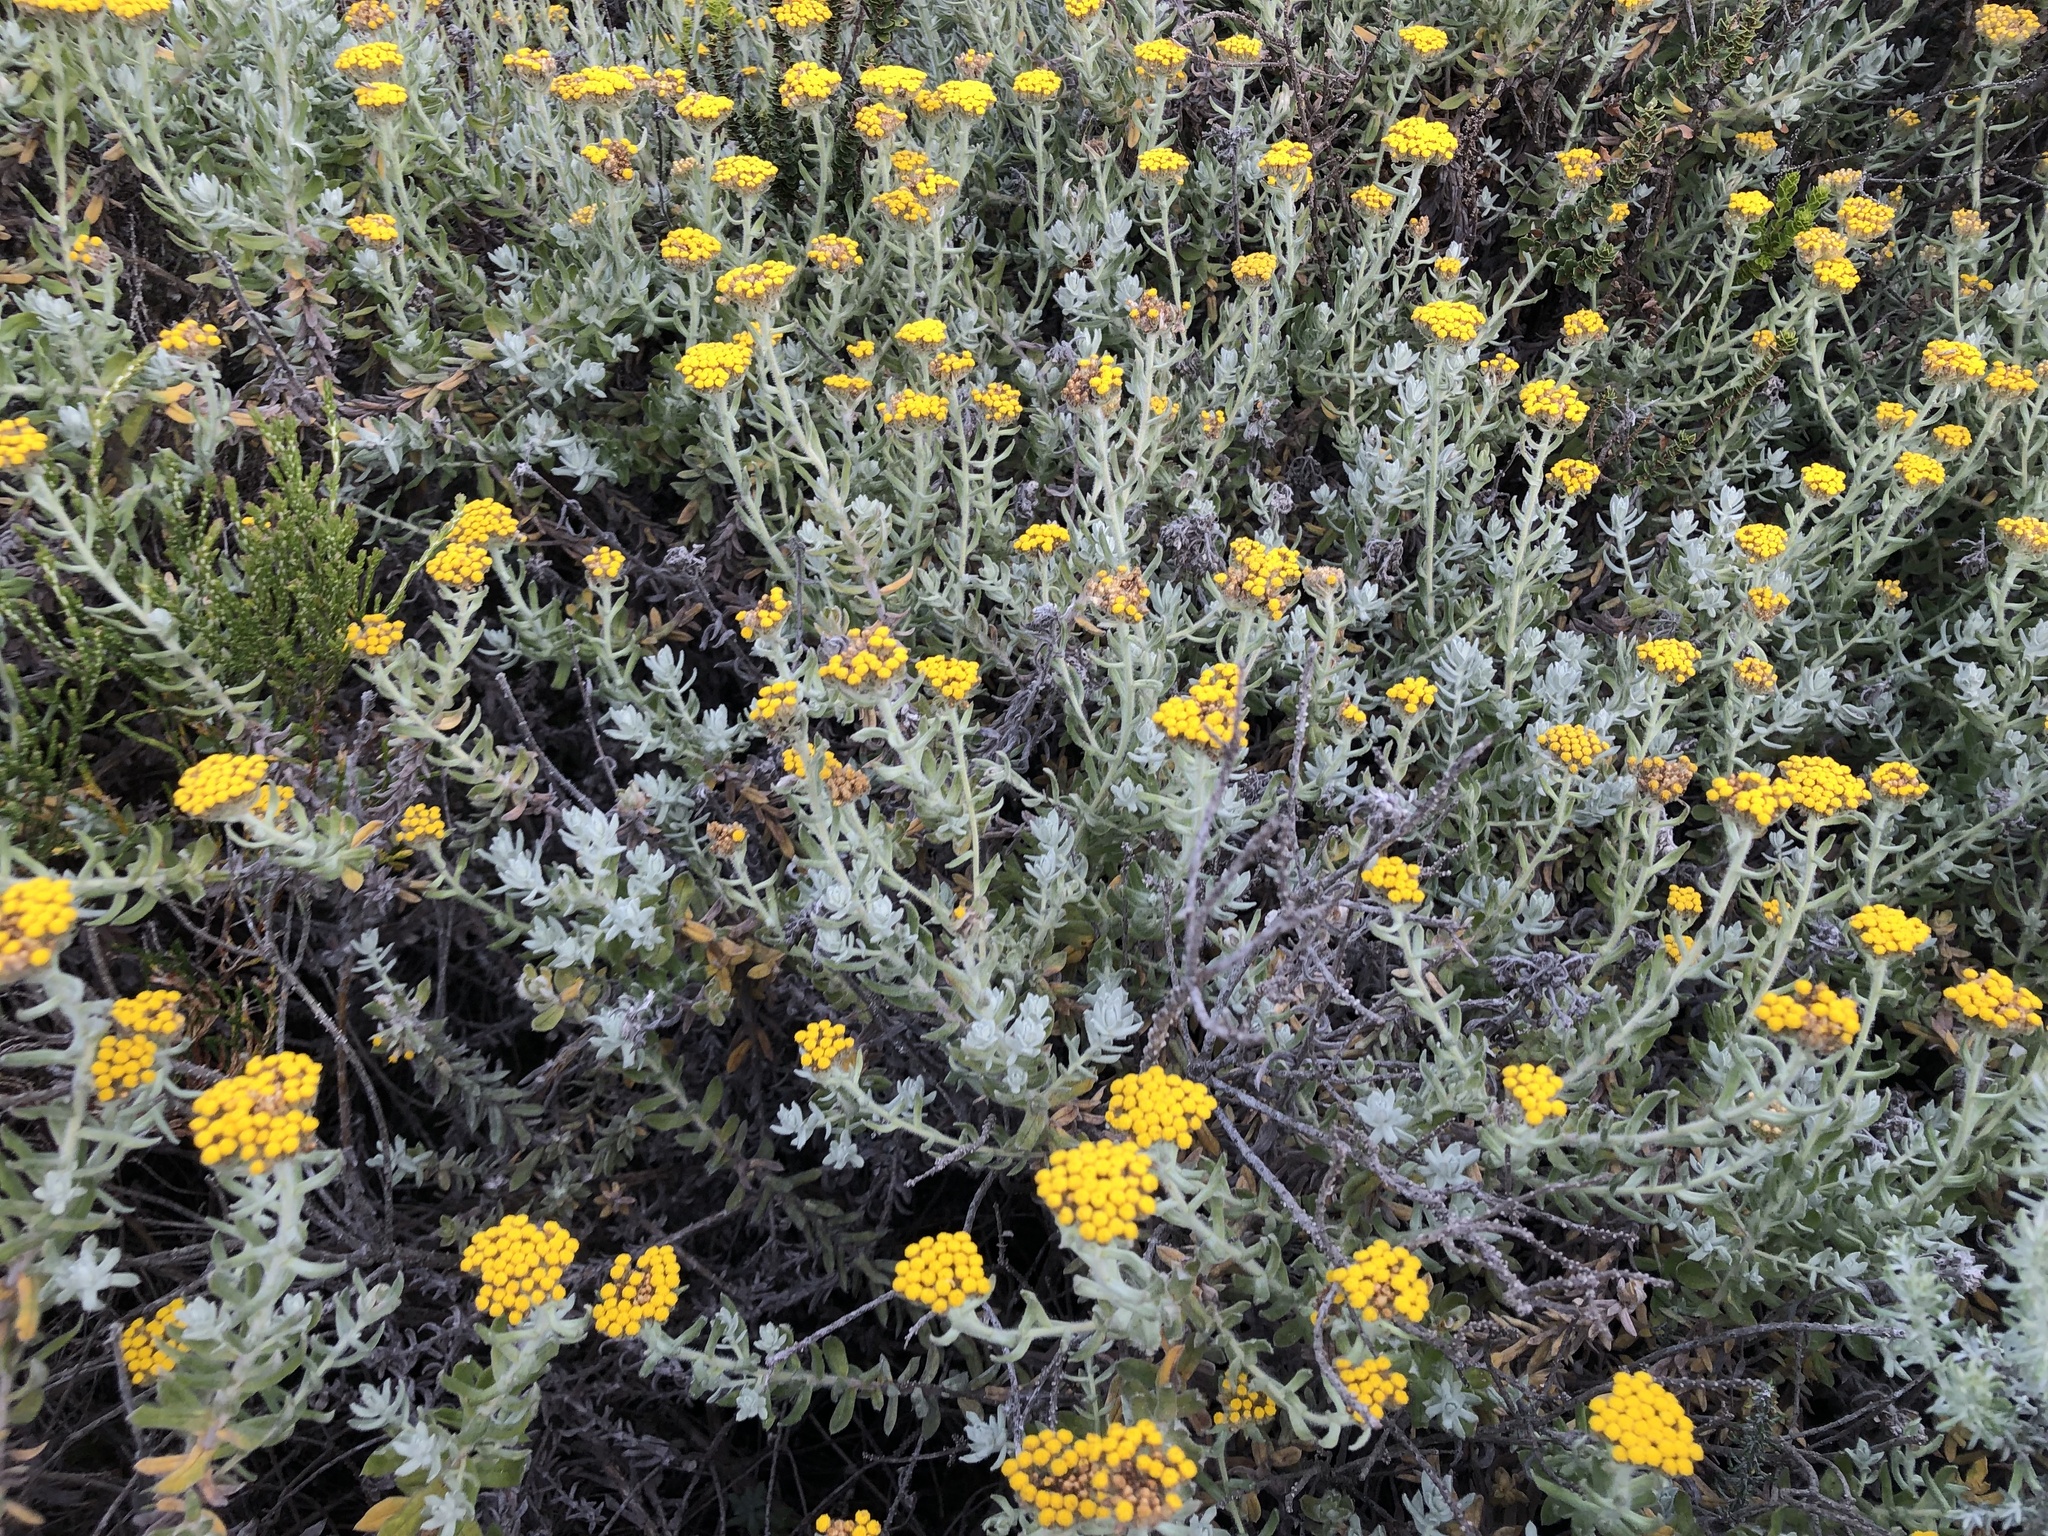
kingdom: Plantae
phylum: Tracheophyta
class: Magnoliopsida
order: Asterales
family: Asteraceae
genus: Helichrysum
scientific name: Helichrysum dasyanthum
